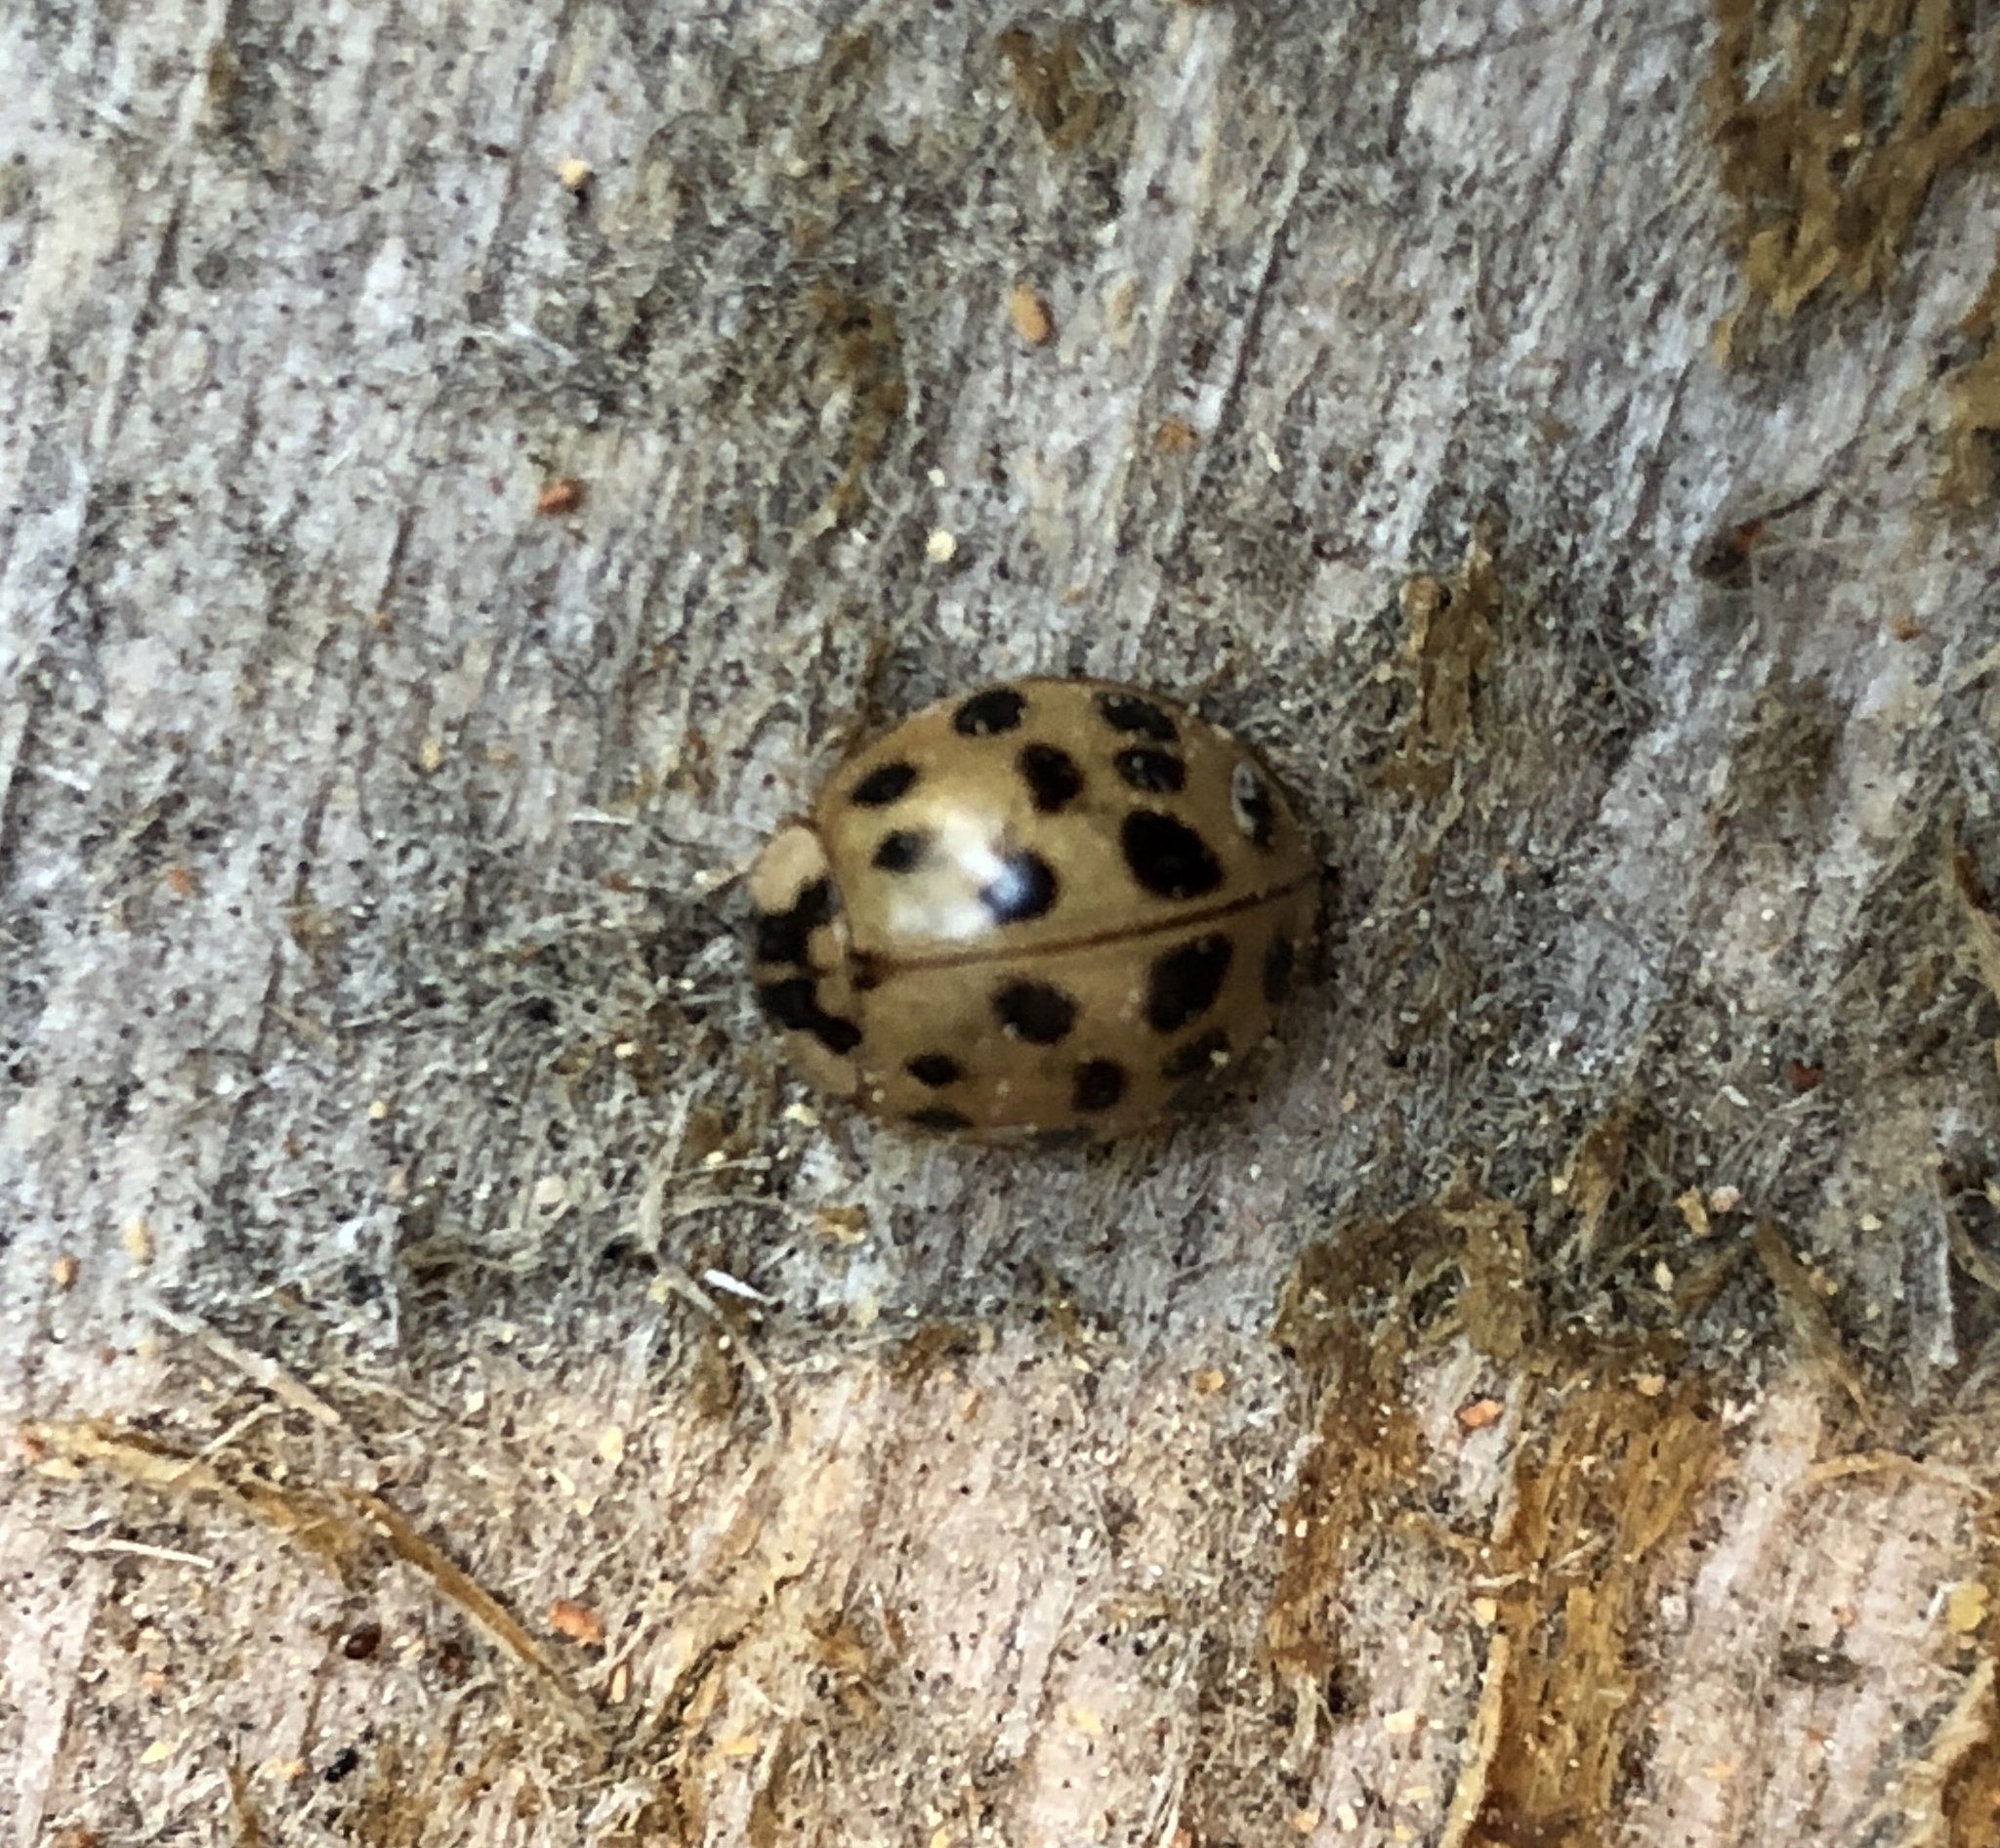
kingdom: Animalia
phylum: Arthropoda
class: Insecta
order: Coleoptera
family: Coccinellidae
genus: Harmonia
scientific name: Harmonia axyridis
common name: Harlequin ladybird
